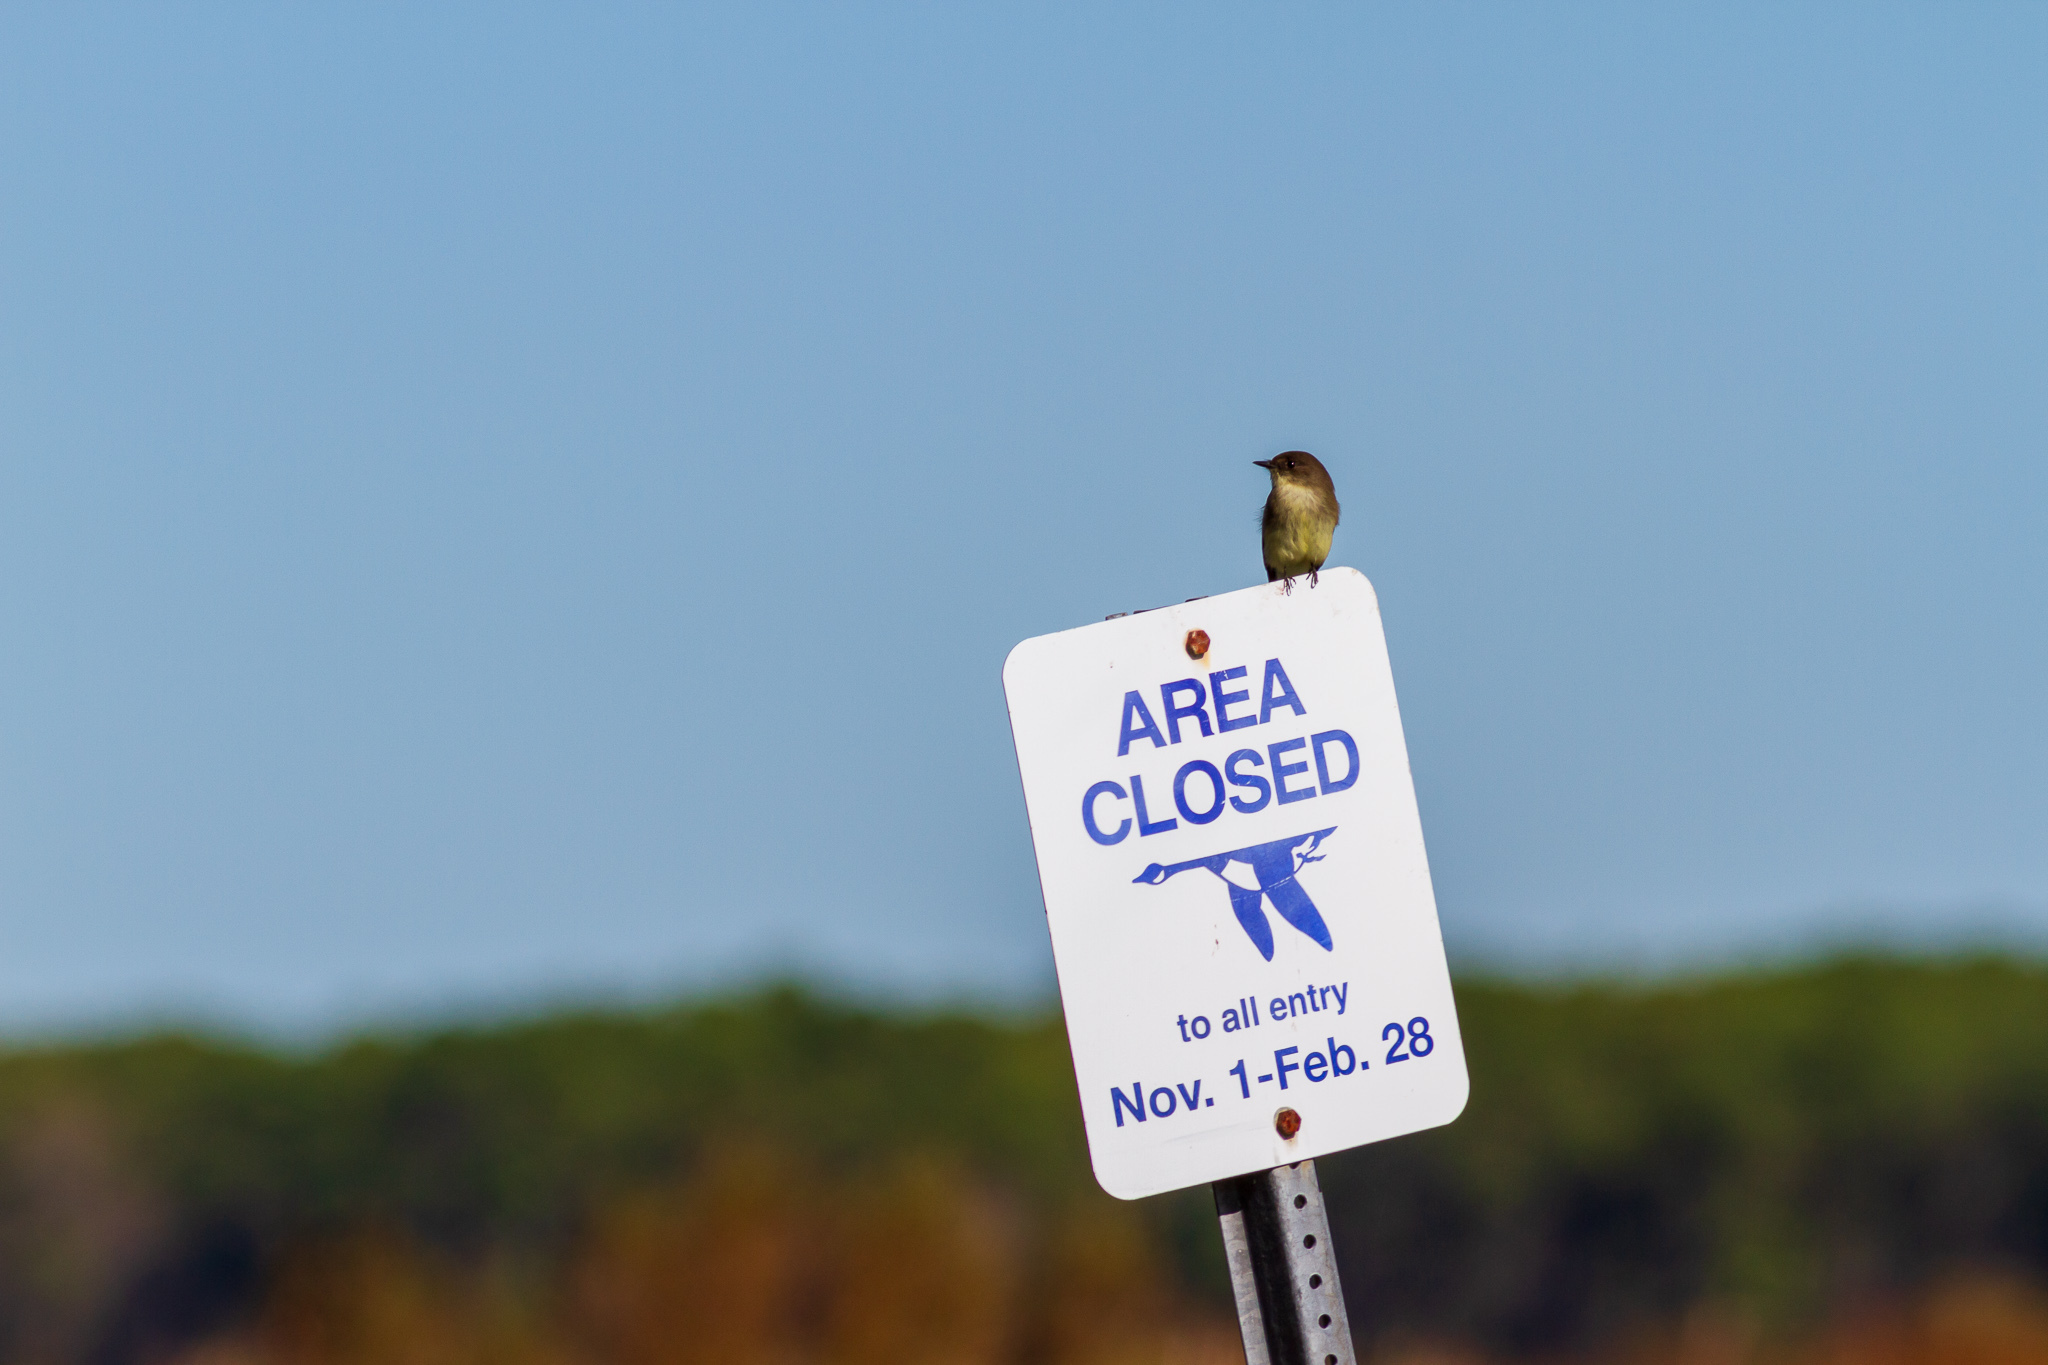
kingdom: Animalia
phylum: Chordata
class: Aves
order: Passeriformes
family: Tyrannidae
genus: Sayornis
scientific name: Sayornis phoebe
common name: Eastern phoebe
